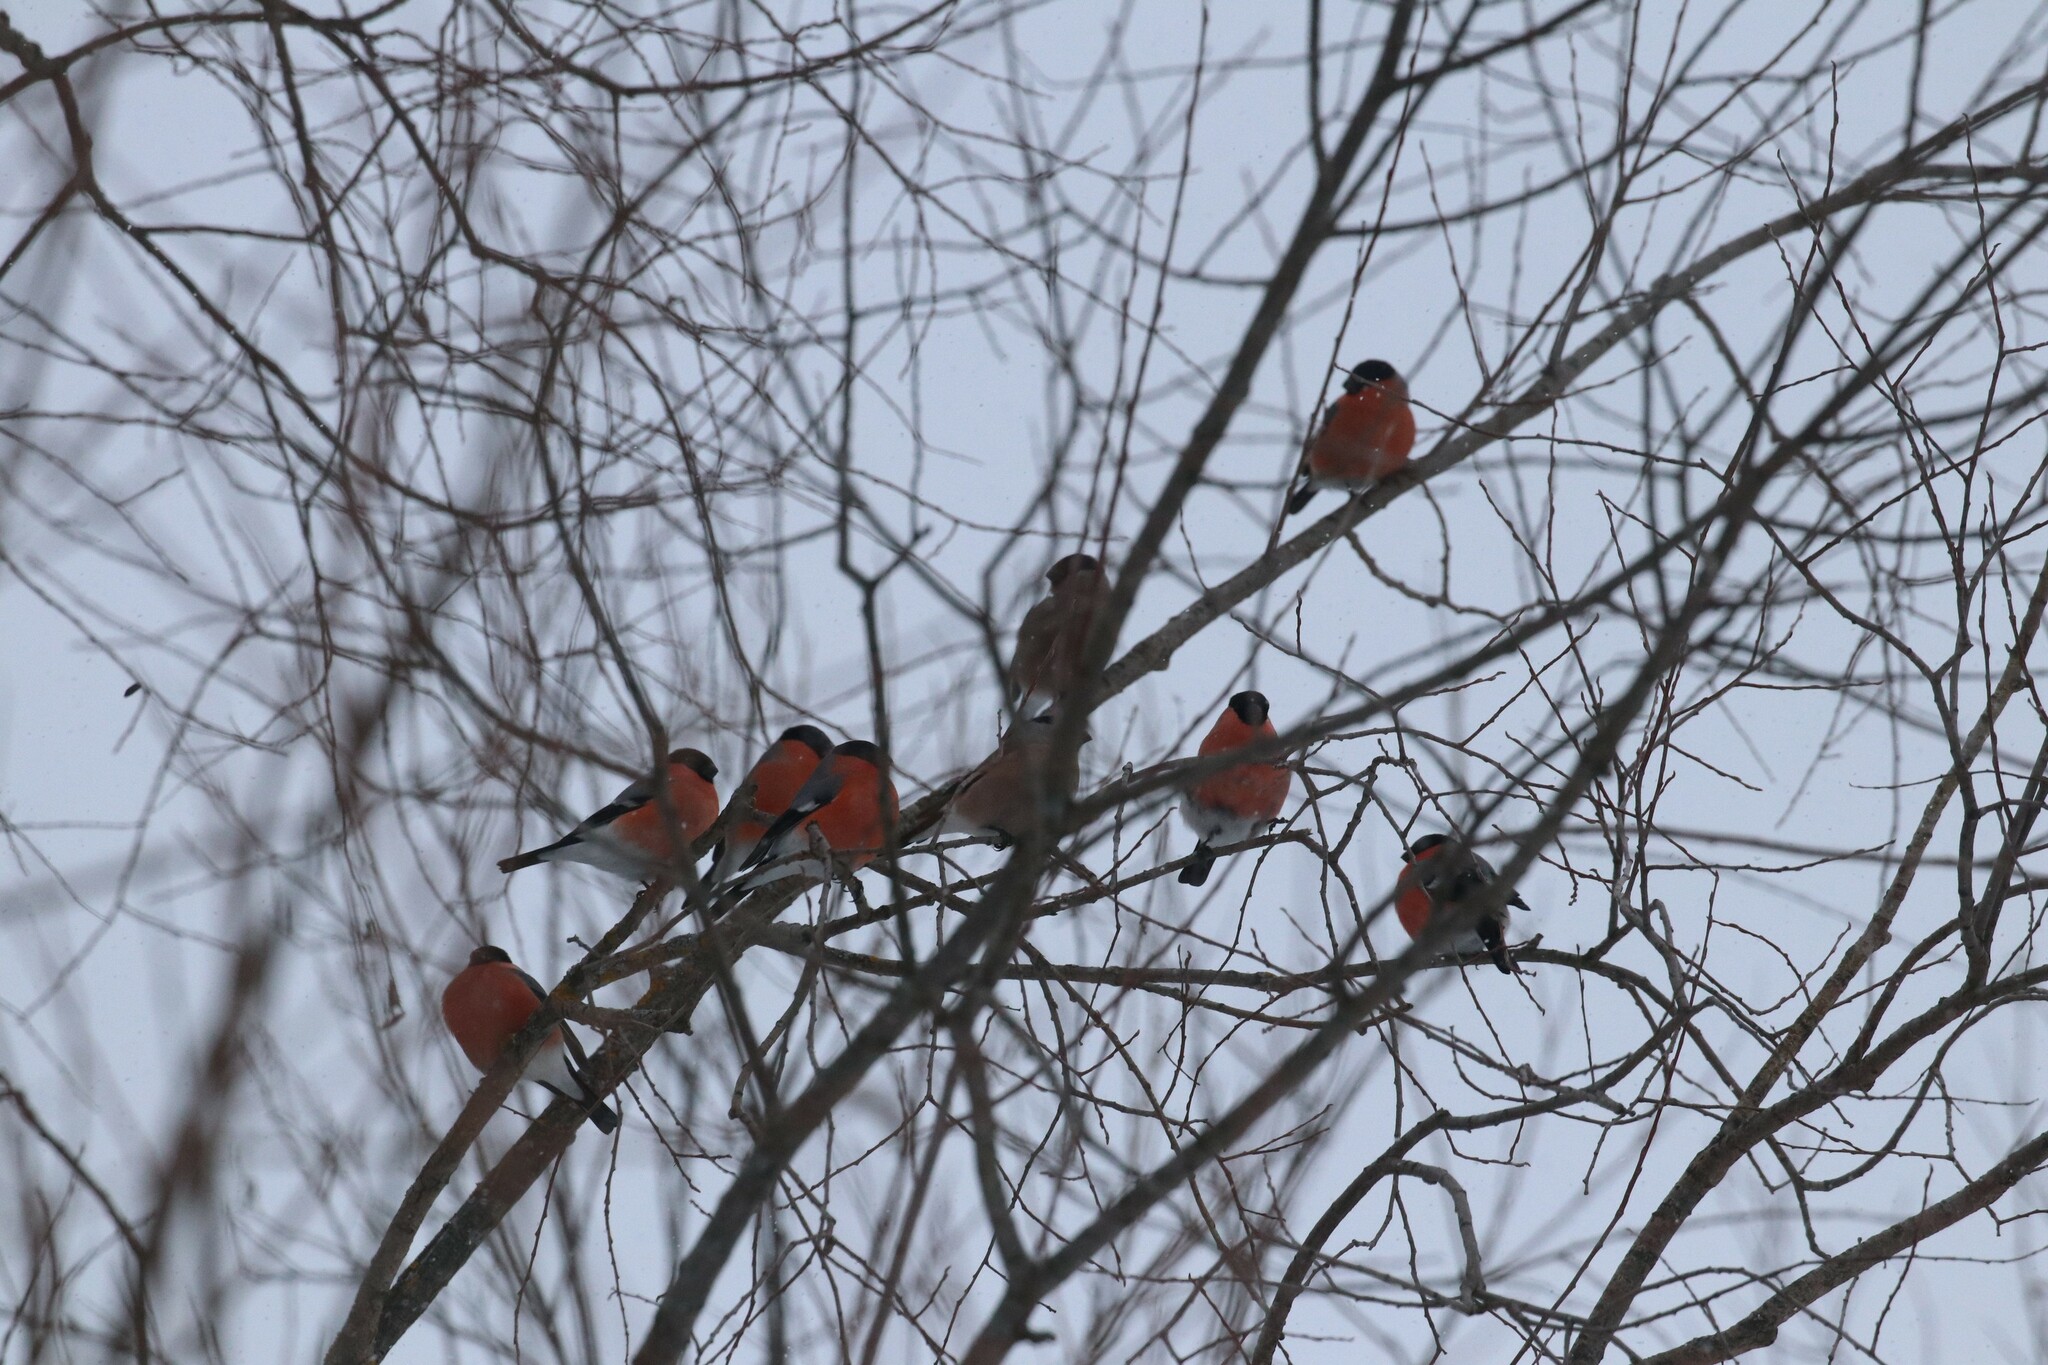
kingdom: Animalia
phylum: Chordata
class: Aves
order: Passeriformes
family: Fringillidae
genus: Pyrrhula
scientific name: Pyrrhula pyrrhula
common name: Eurasian bullfinch
